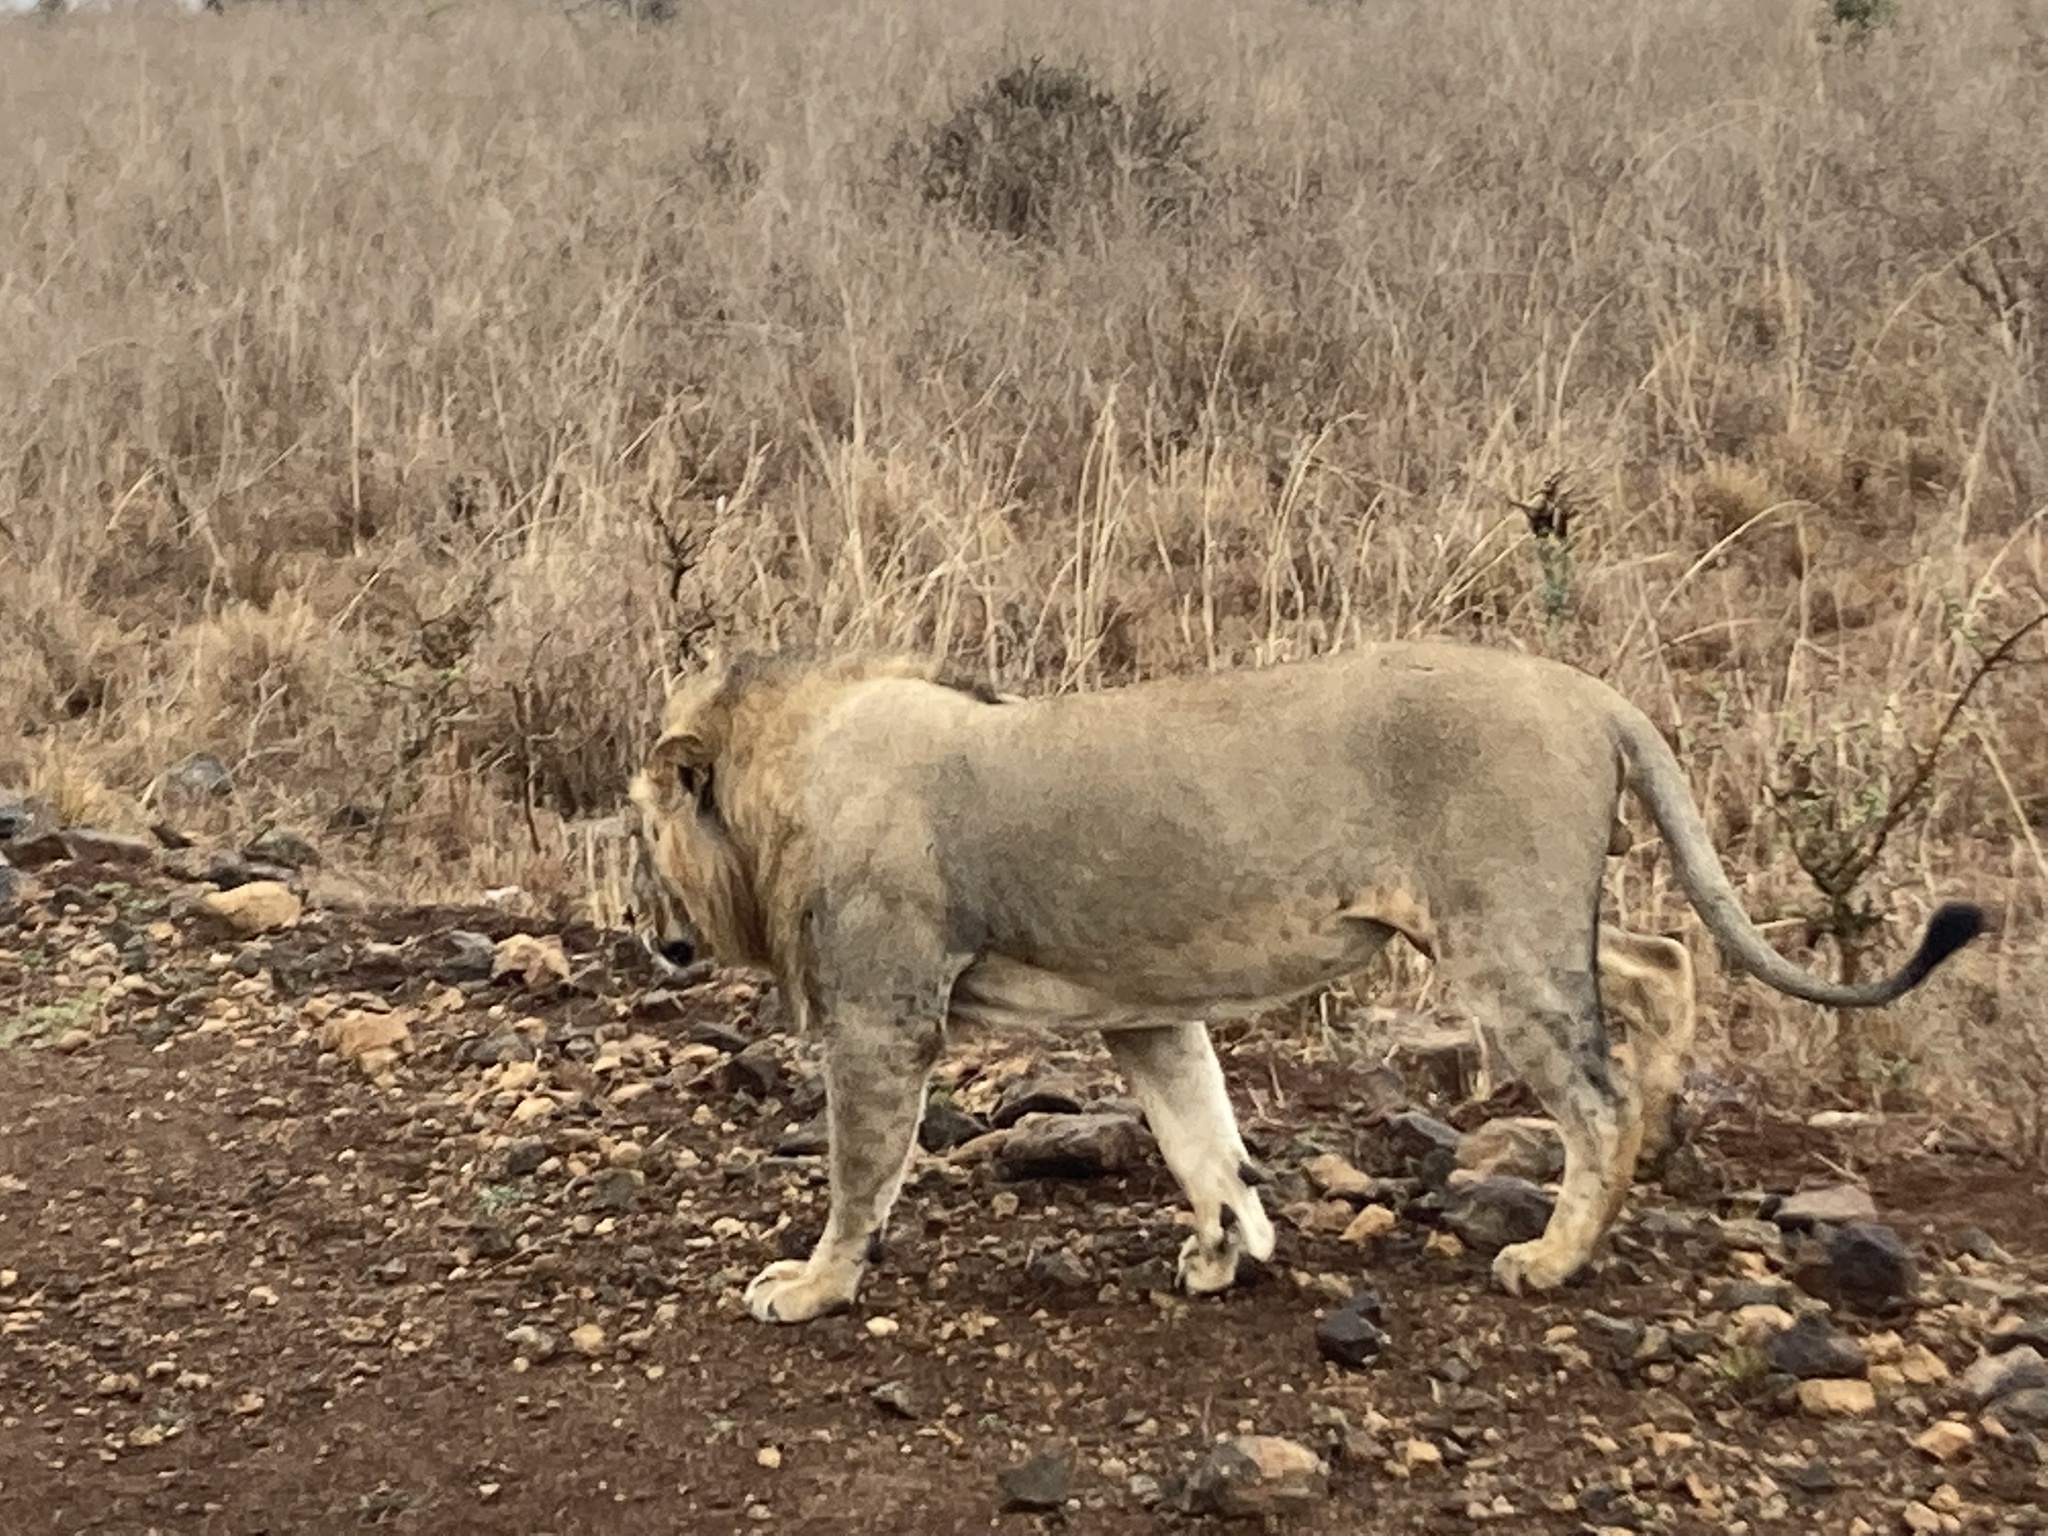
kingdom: Animalia
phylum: Chordata
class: Mammalia
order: Carnivora
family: Felidae
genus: Panthera
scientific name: Panthera leo
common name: Lion
